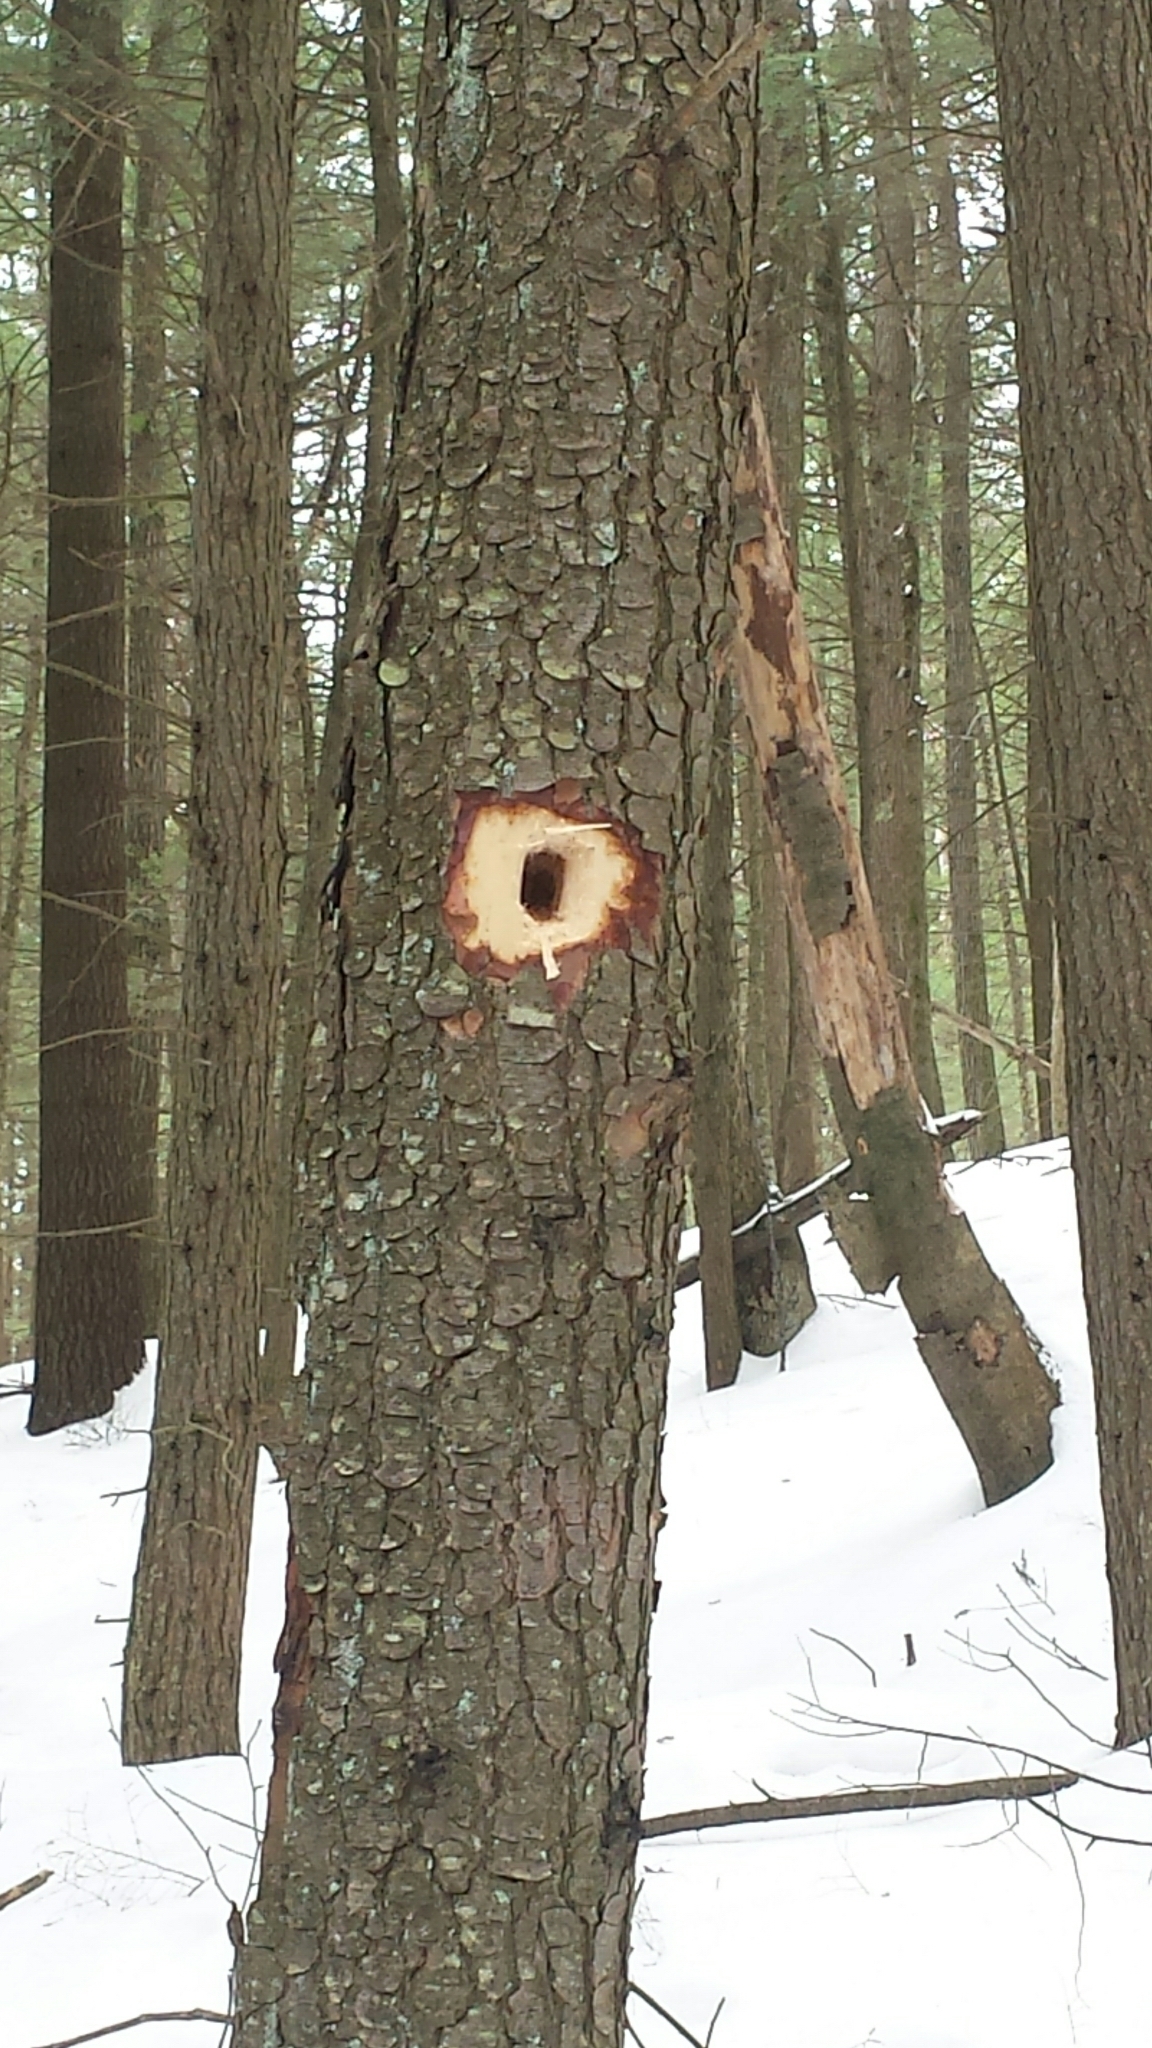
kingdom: Animalia
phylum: Chordata
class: Aves
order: Piciformes
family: Picidae
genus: Dryocopus
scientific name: Dryocopus pileatus
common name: Pileated woodpecker
